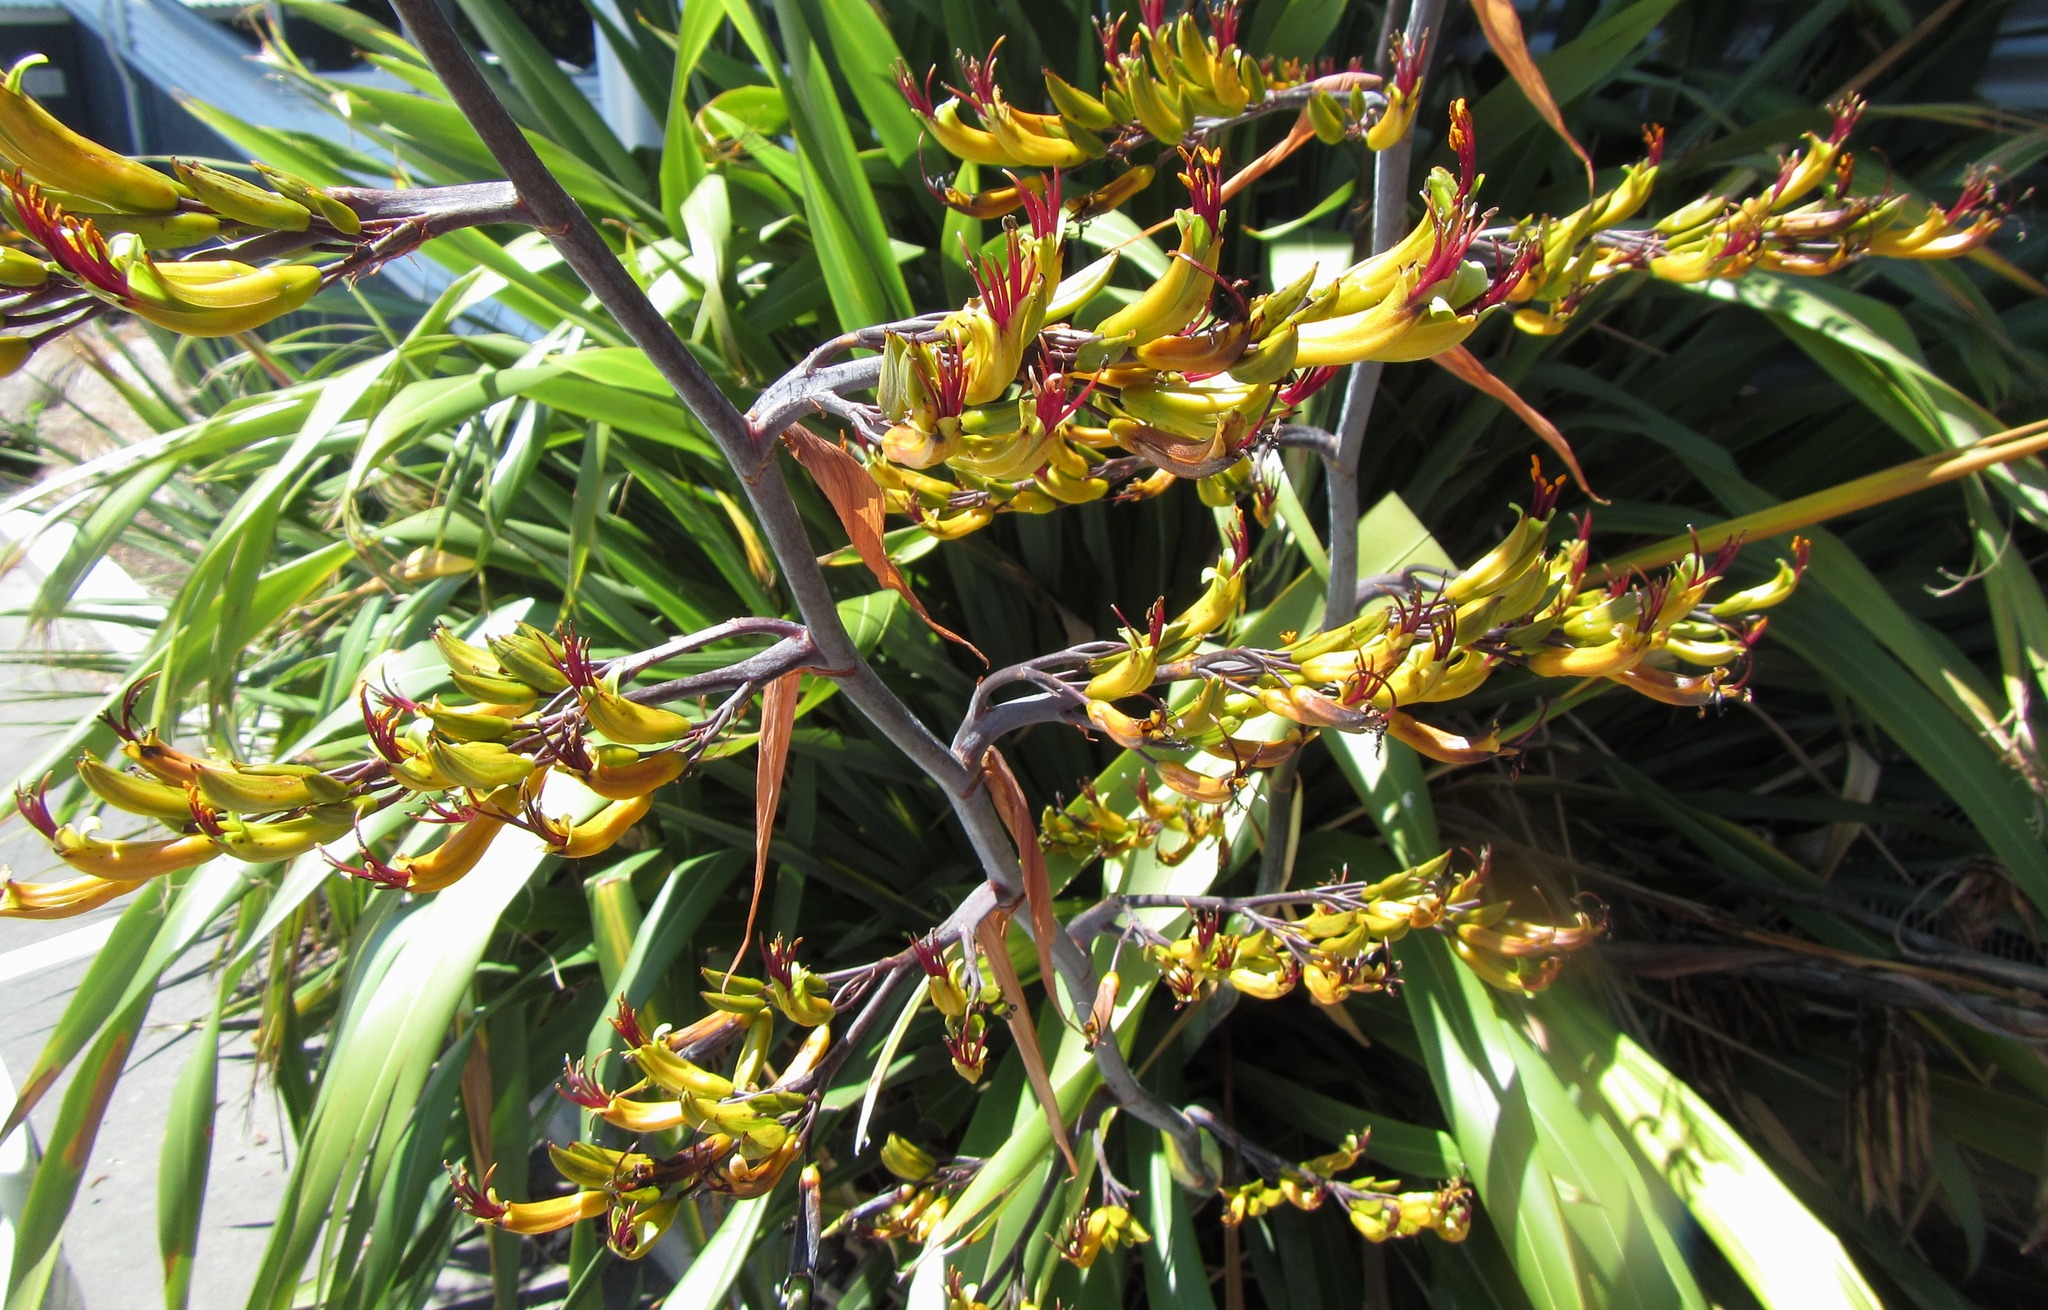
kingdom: Plantae
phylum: Tracheophyta
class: Liliopsida
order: Asparagales
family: Asphodelaceae
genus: Phormium
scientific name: Phormium colensoi
